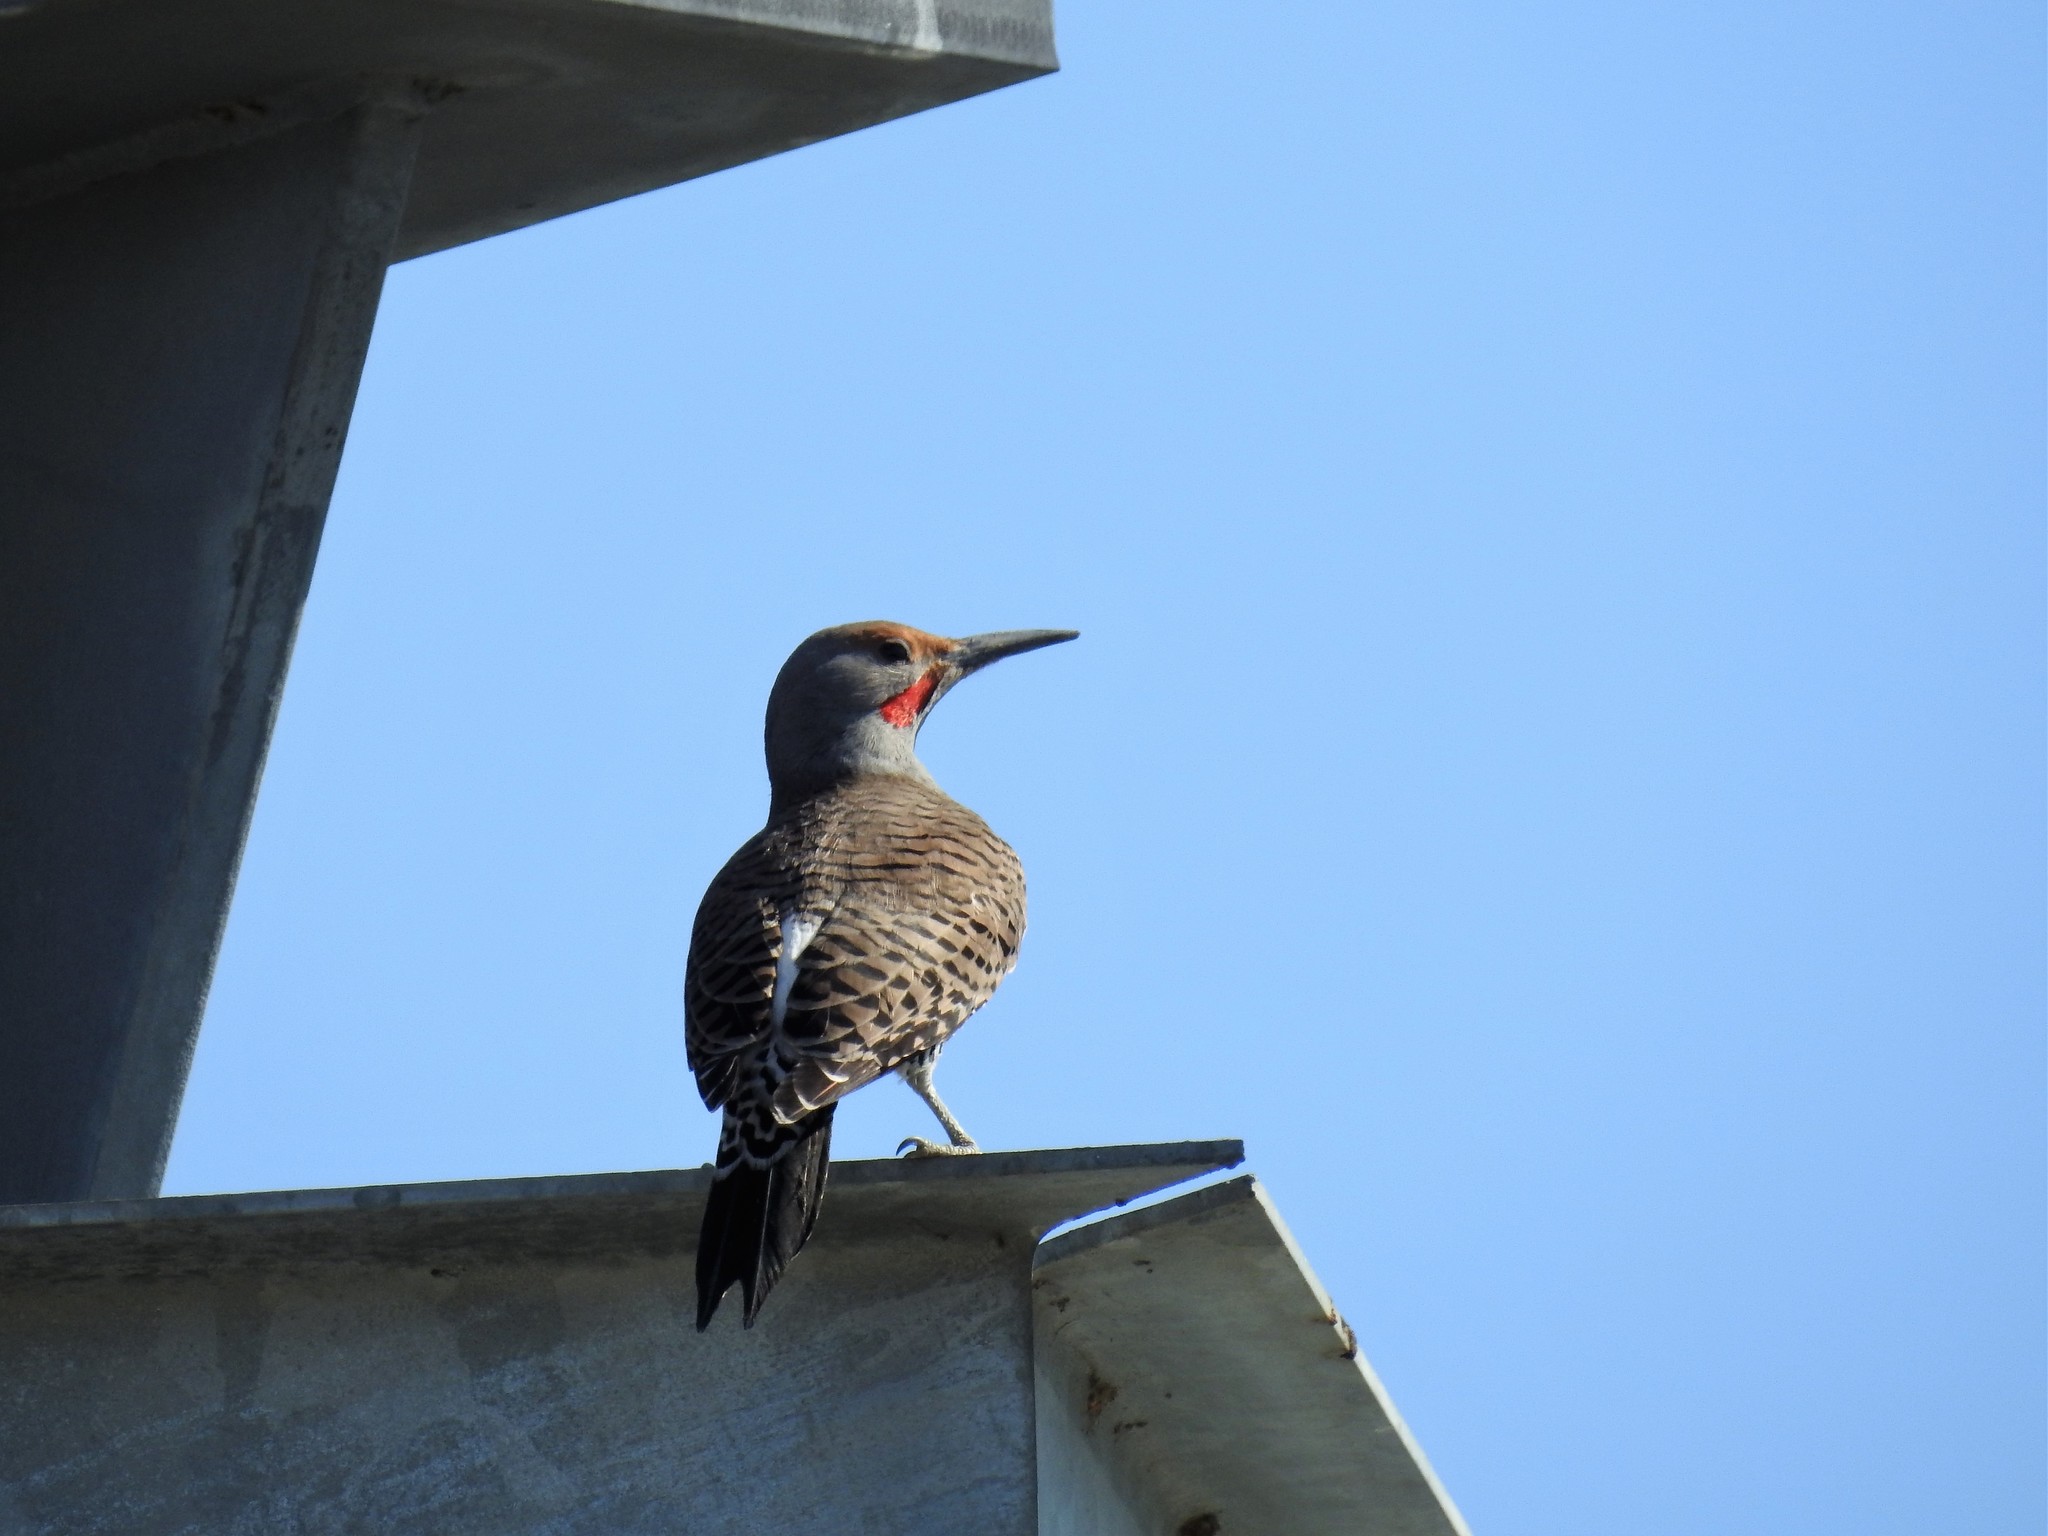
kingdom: Animalia
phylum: Chordata
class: Aves
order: Piciformes
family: Picidae
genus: Colaptes
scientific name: Colaptes auratus
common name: Northern flicker
